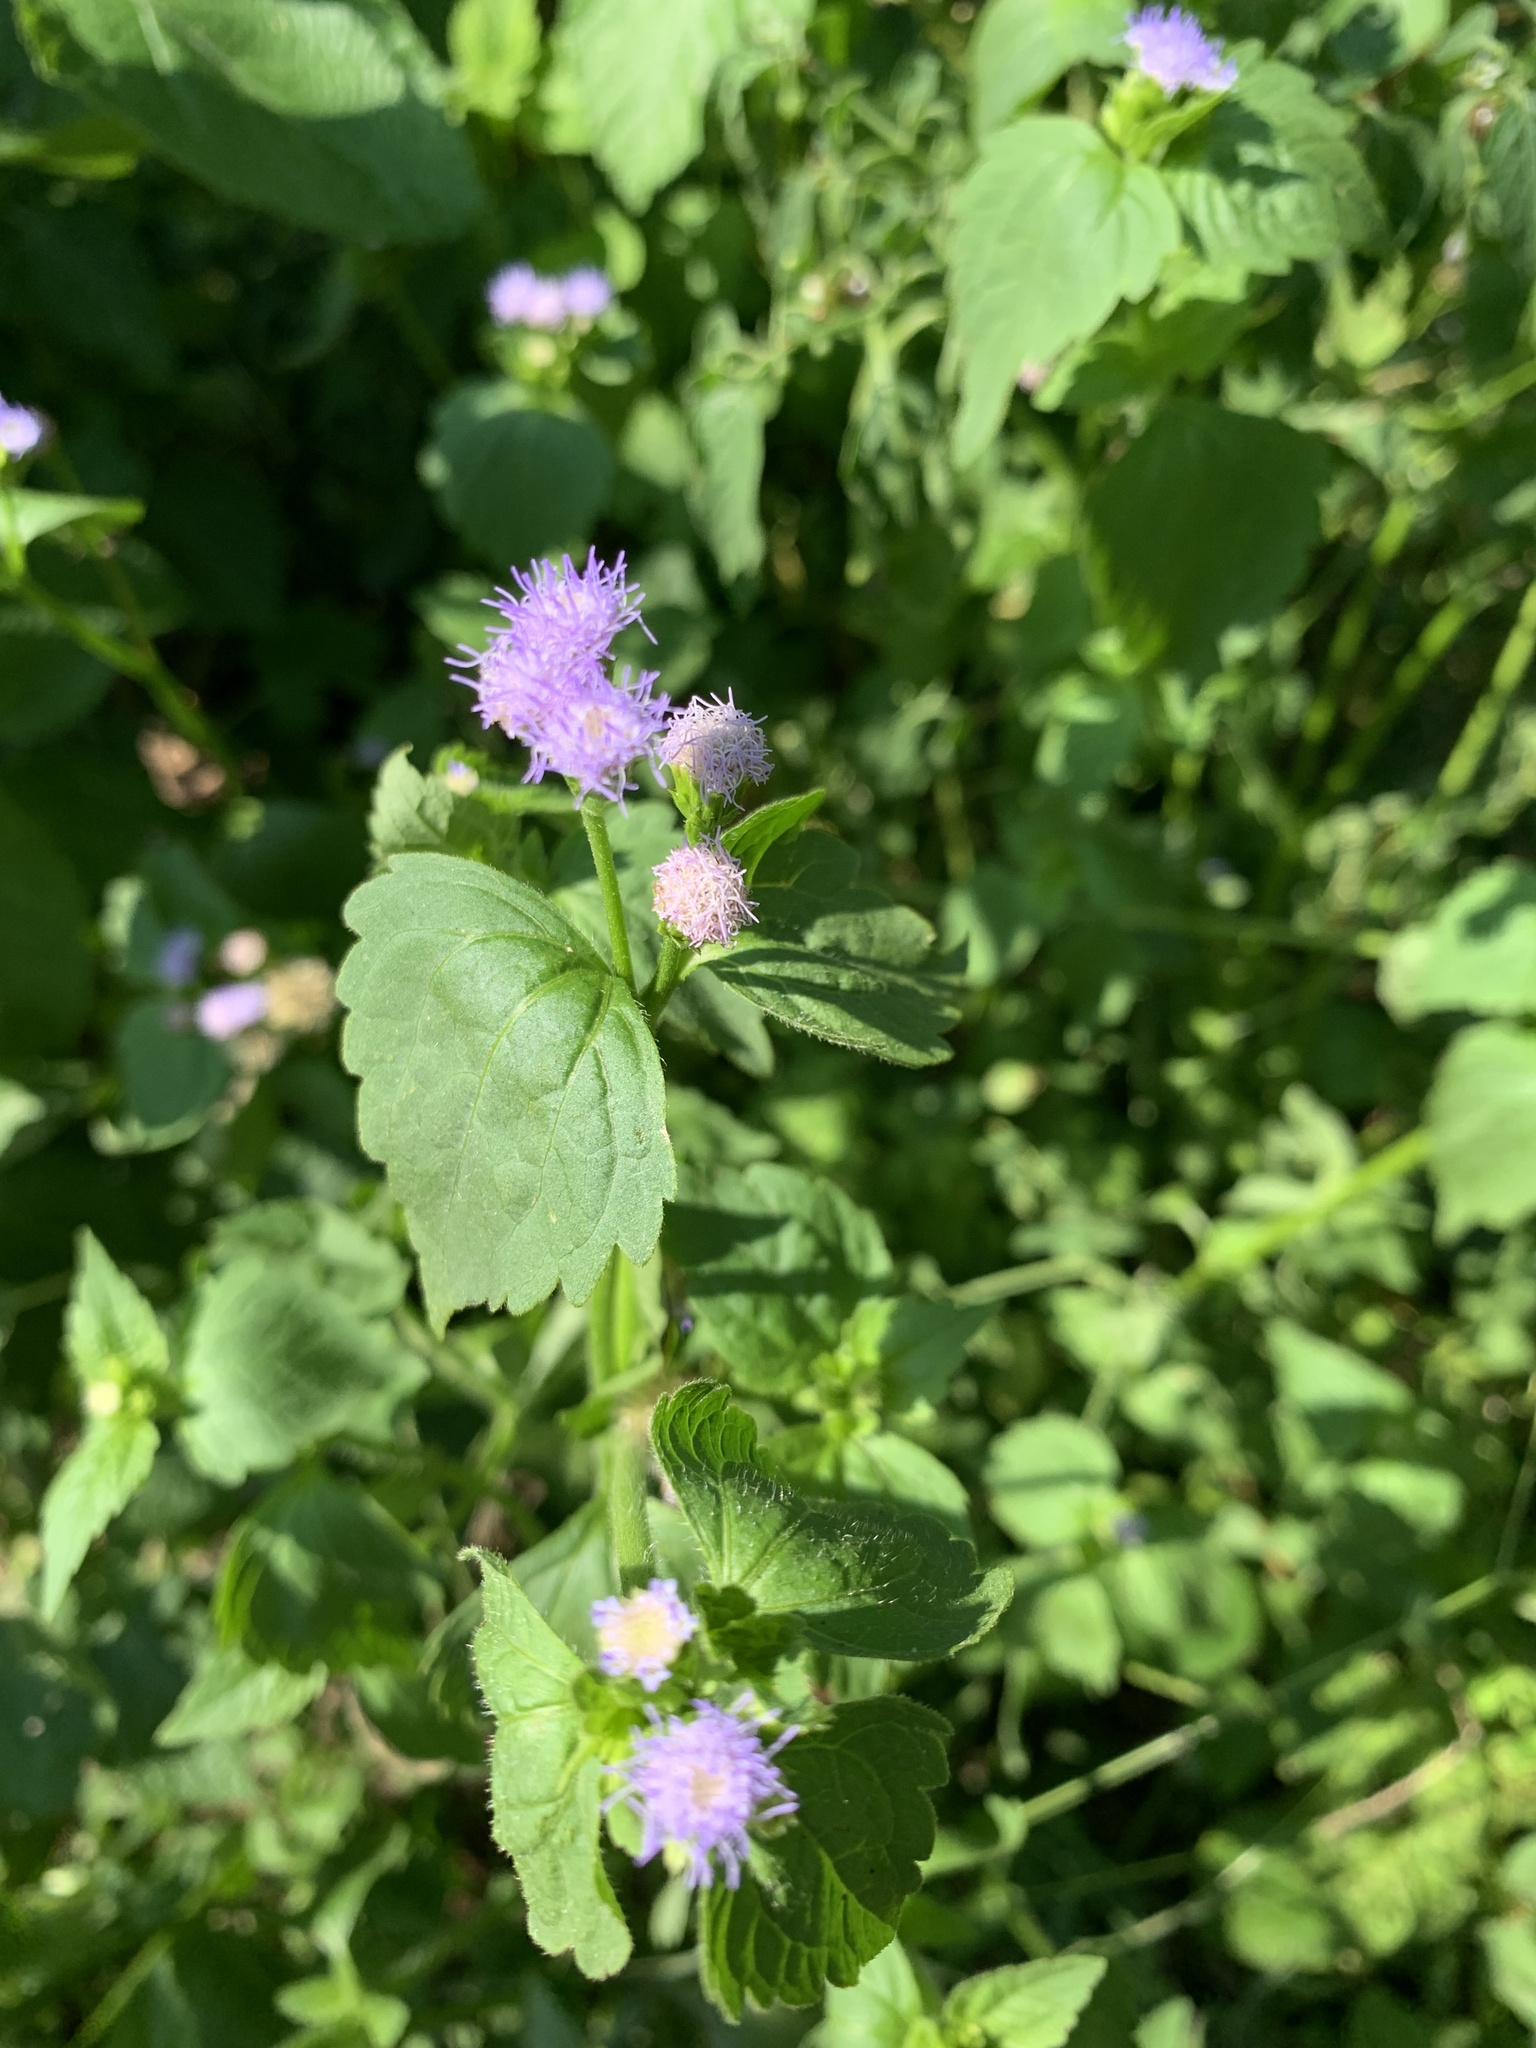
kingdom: Plantae
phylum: Tracheophyta
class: Magnoliopsida
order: Asterales
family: Asteraceae
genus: Praxelis
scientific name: Praxelis clematidea
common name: Praxelis
